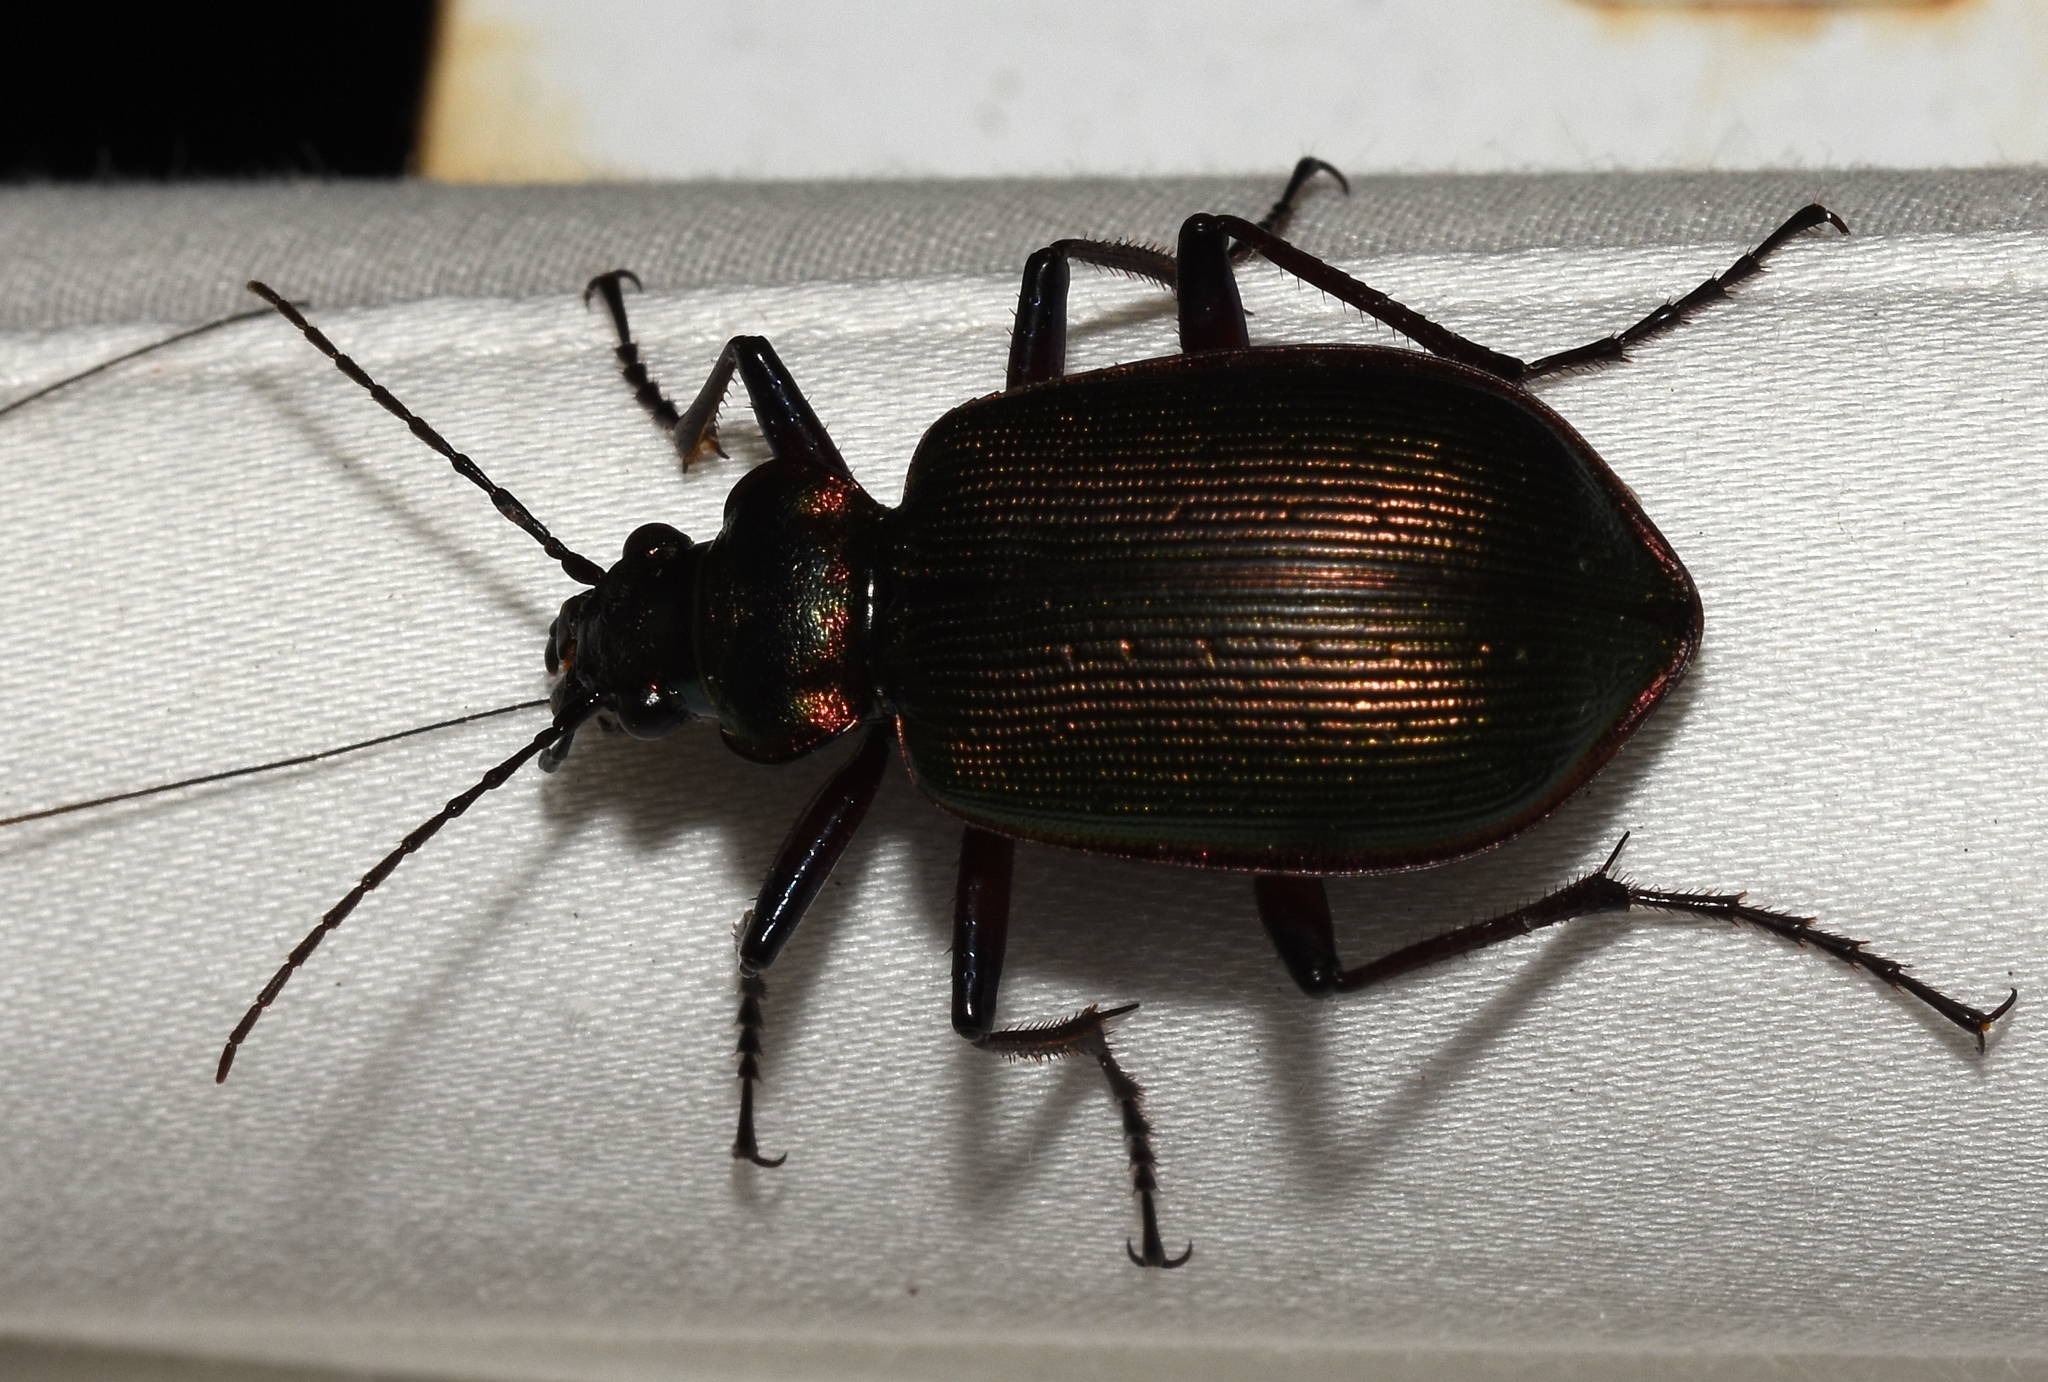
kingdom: Animalia
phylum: Arthropoda
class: Insecta
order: Coleoptera
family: Carabidae
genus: Calosoma
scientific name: Calosoma wilcoxi
